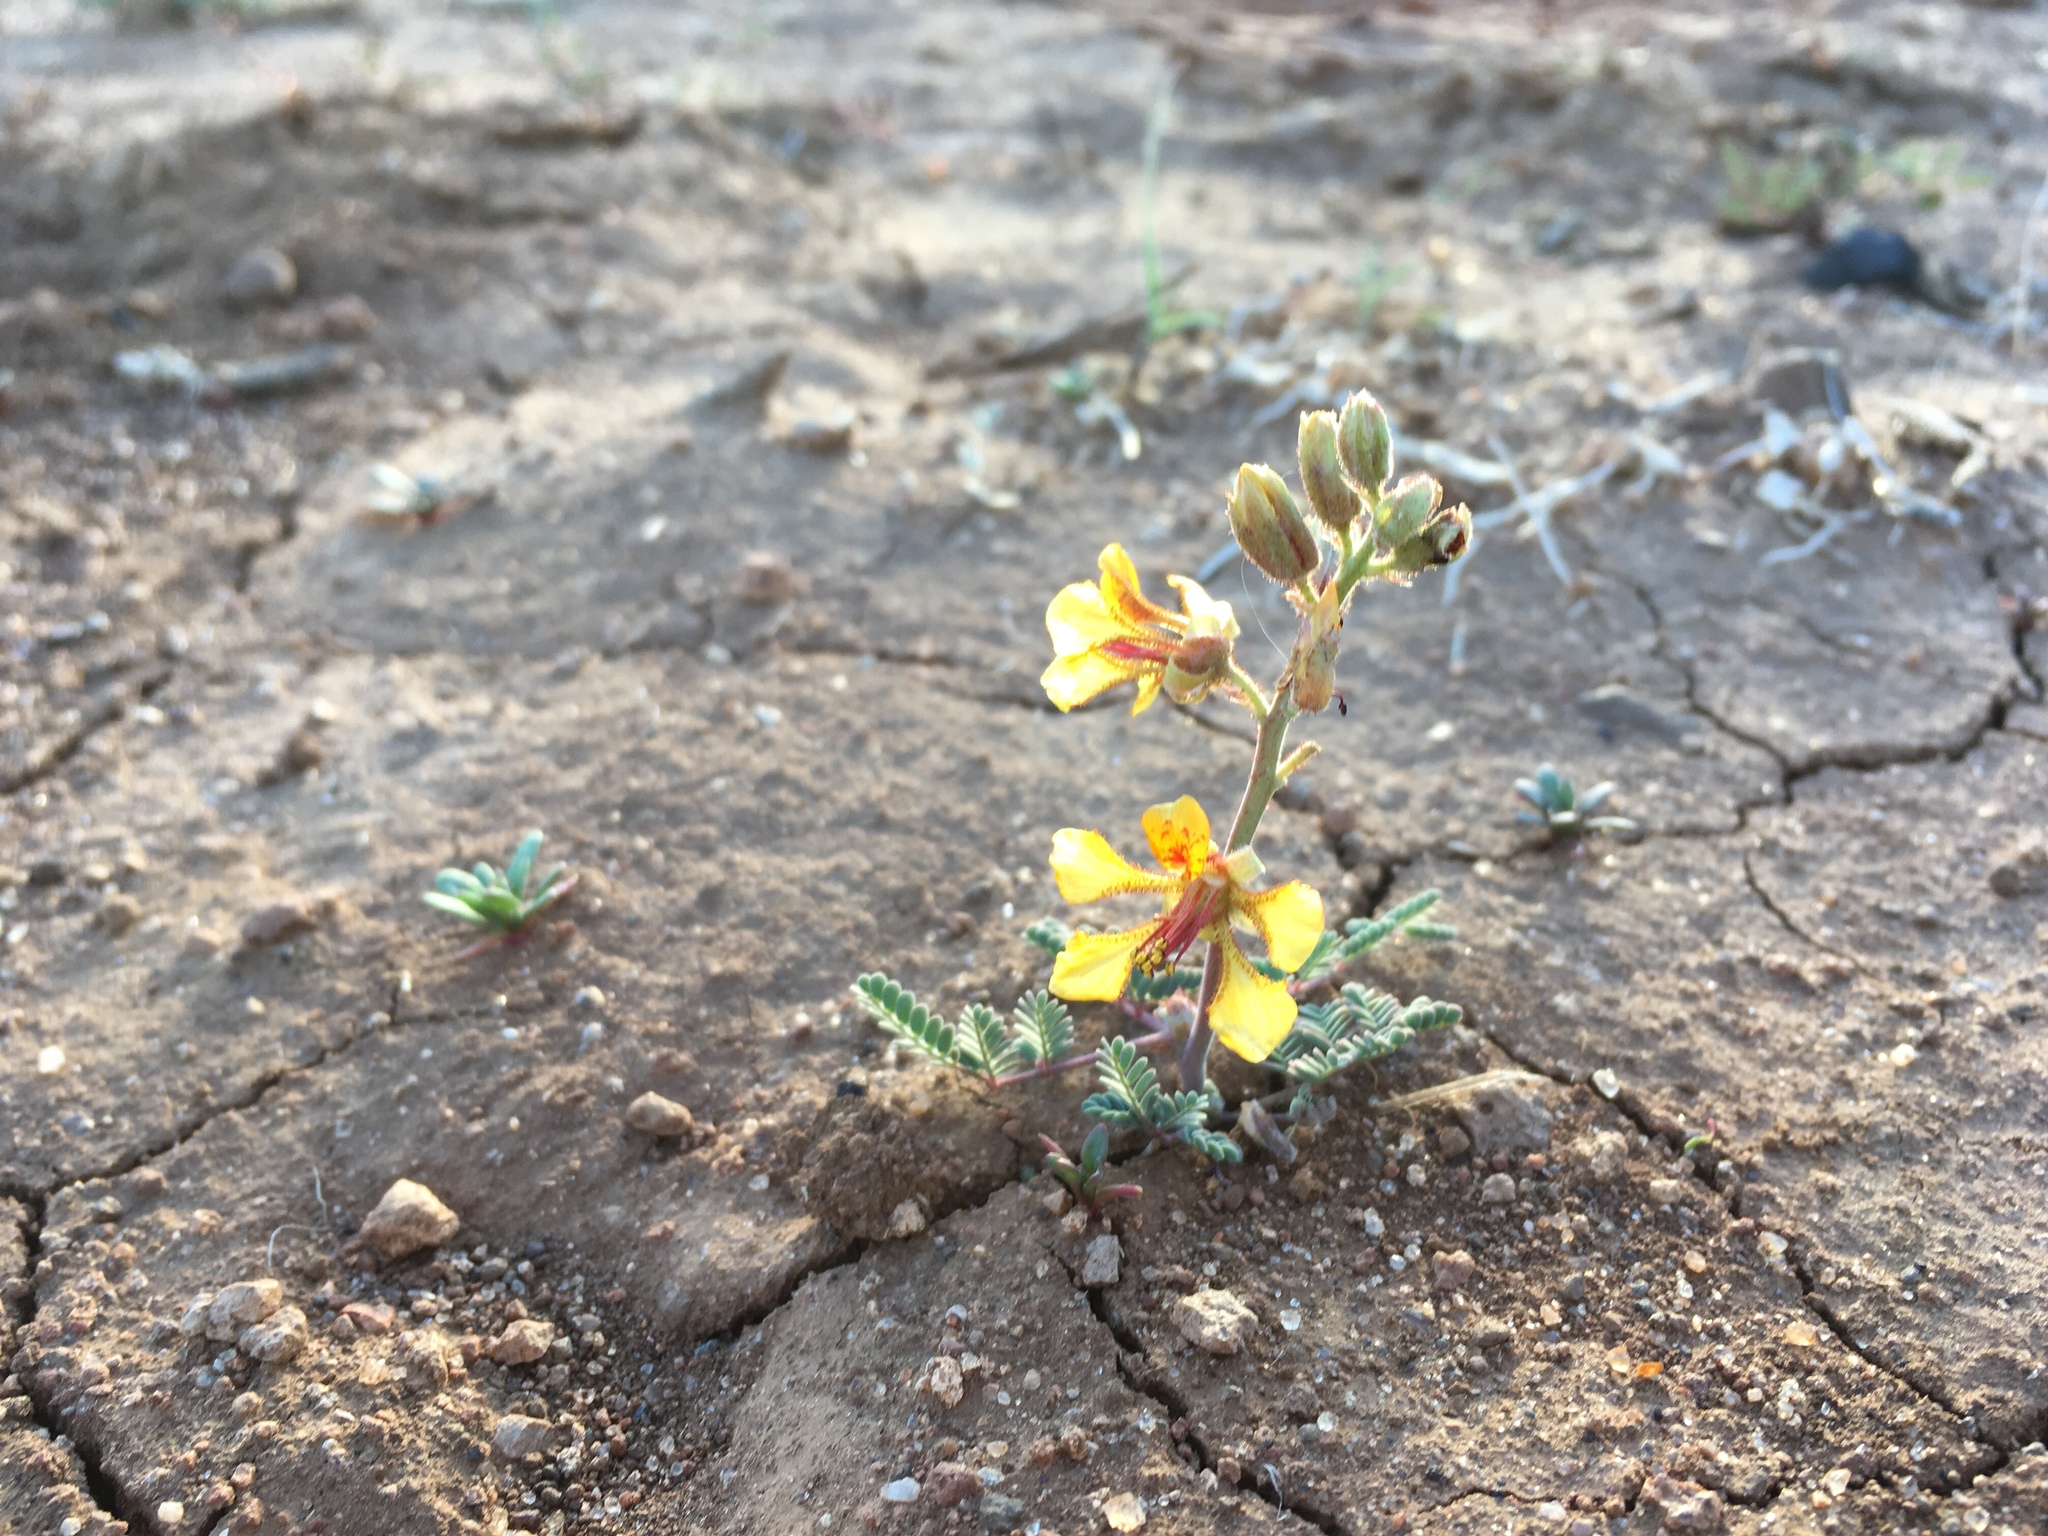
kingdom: Plantae
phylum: Tracheophyta
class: Magnoliopsida
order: Fabales
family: Fabaceae
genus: Hoffmannseggia
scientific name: Hoffmannseggia glauca
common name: Pignut
